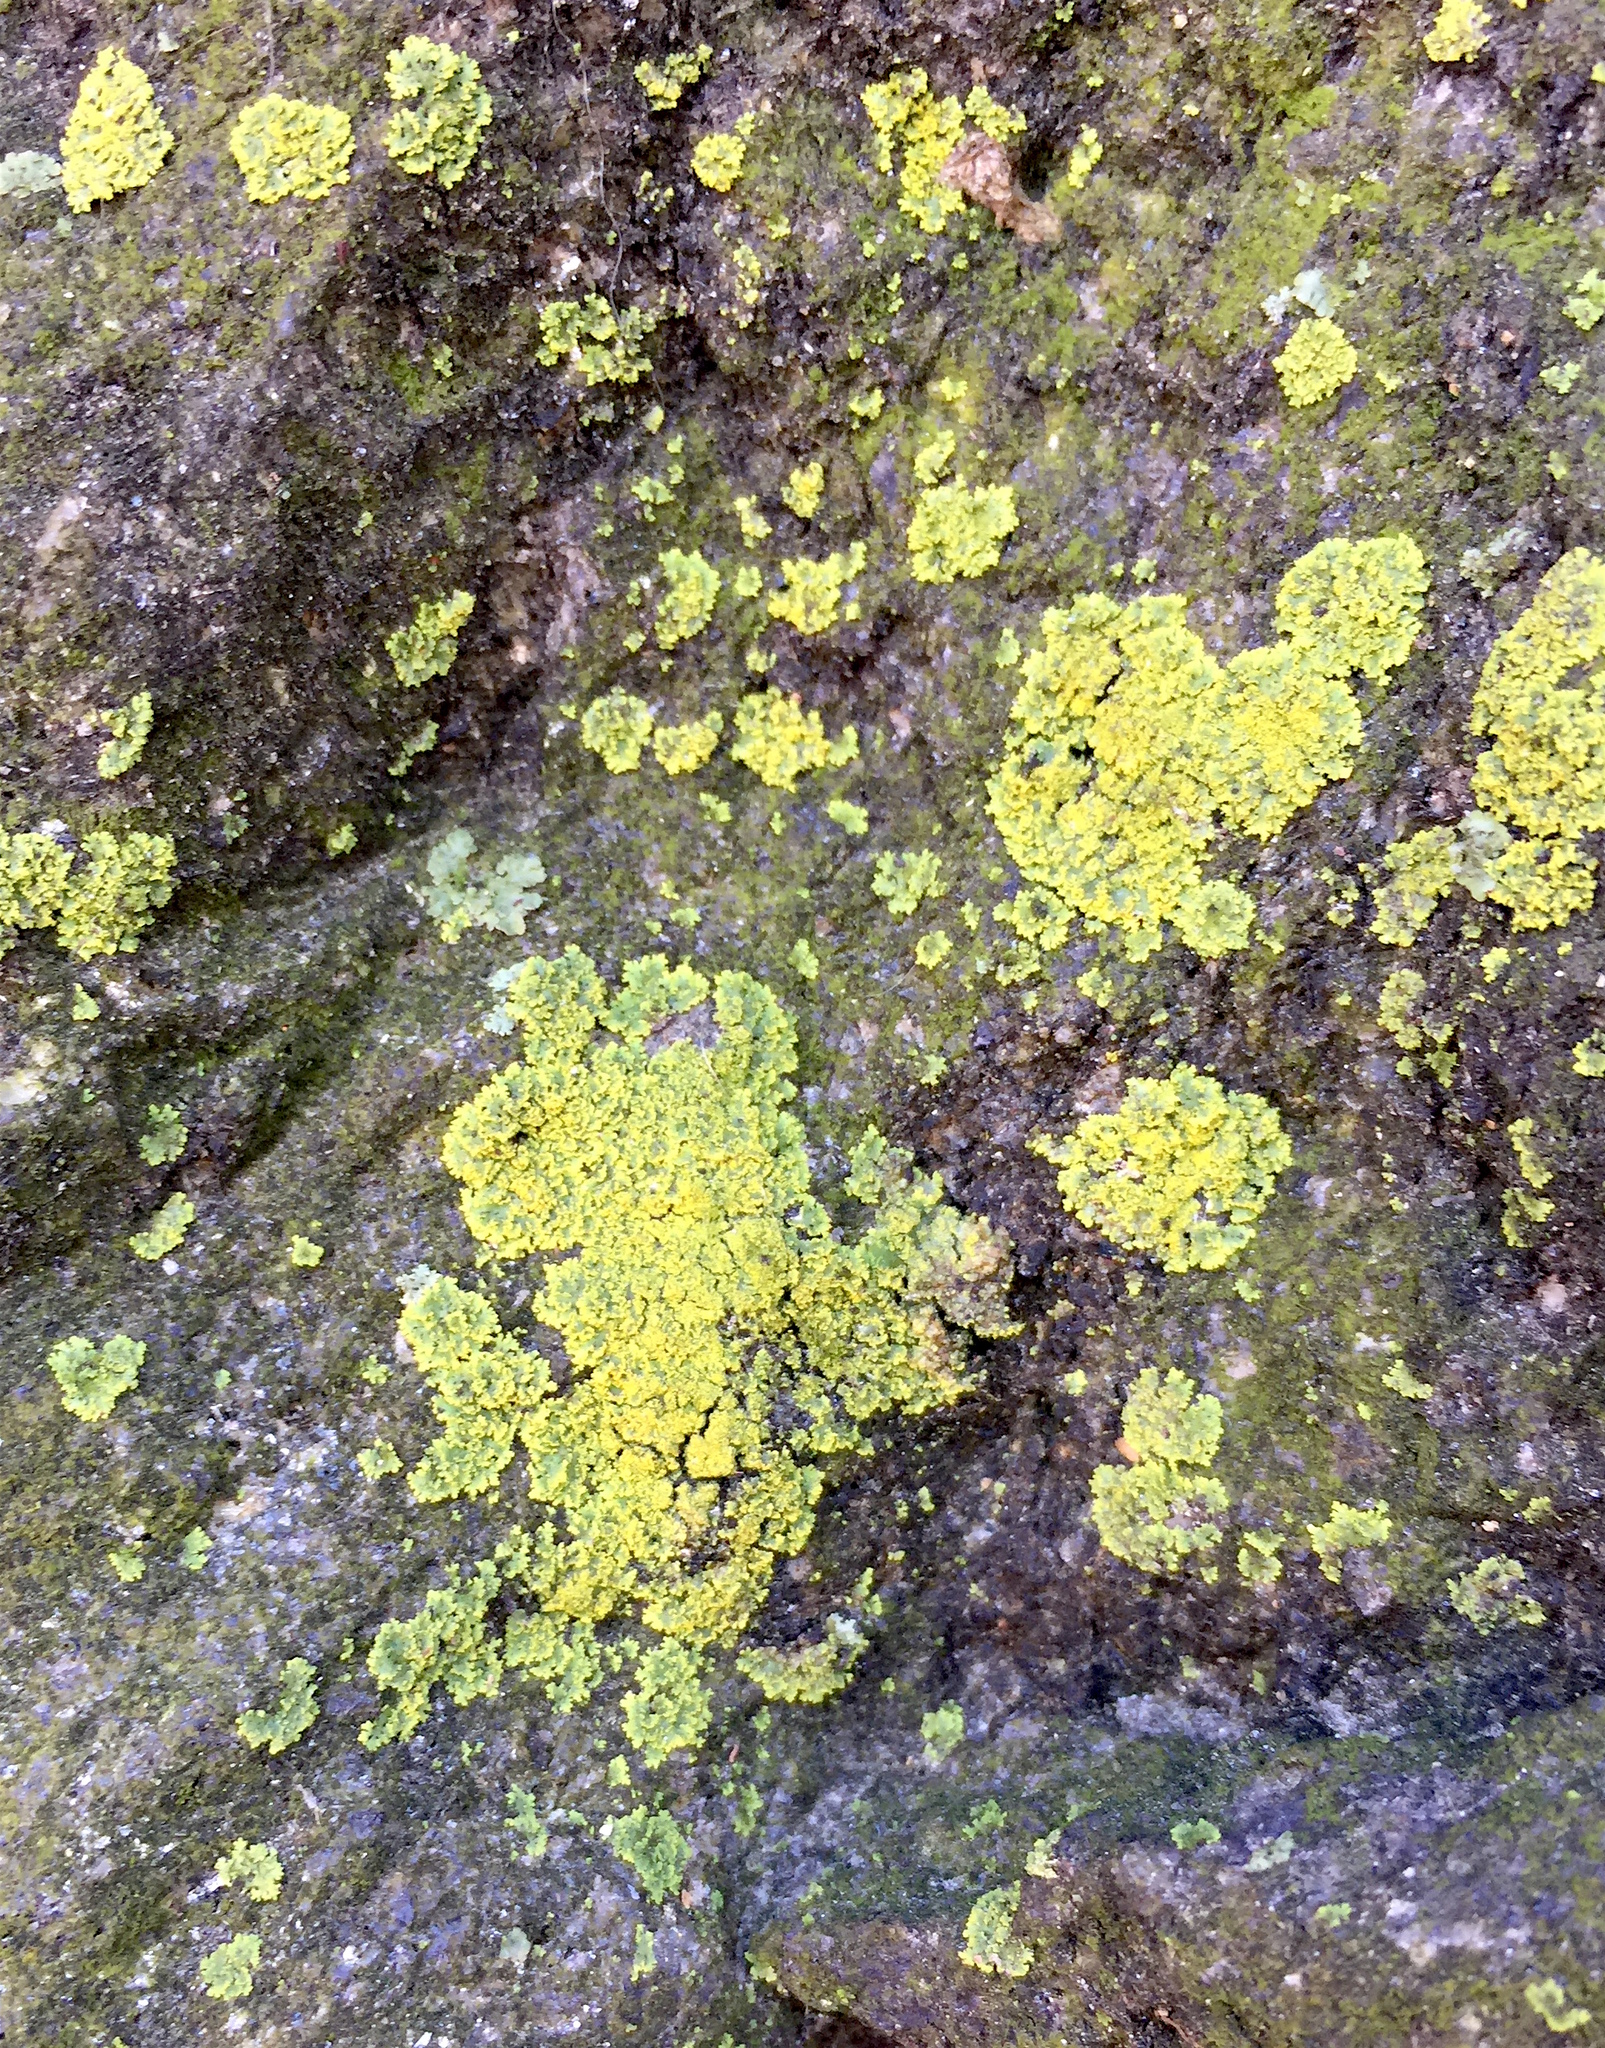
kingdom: Fungi
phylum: Ascomycota
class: Candelariomycetes
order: Candelariales
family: Candelariaceae
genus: Candelaria
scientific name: Candelaria concolor
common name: Candleflame lichen
